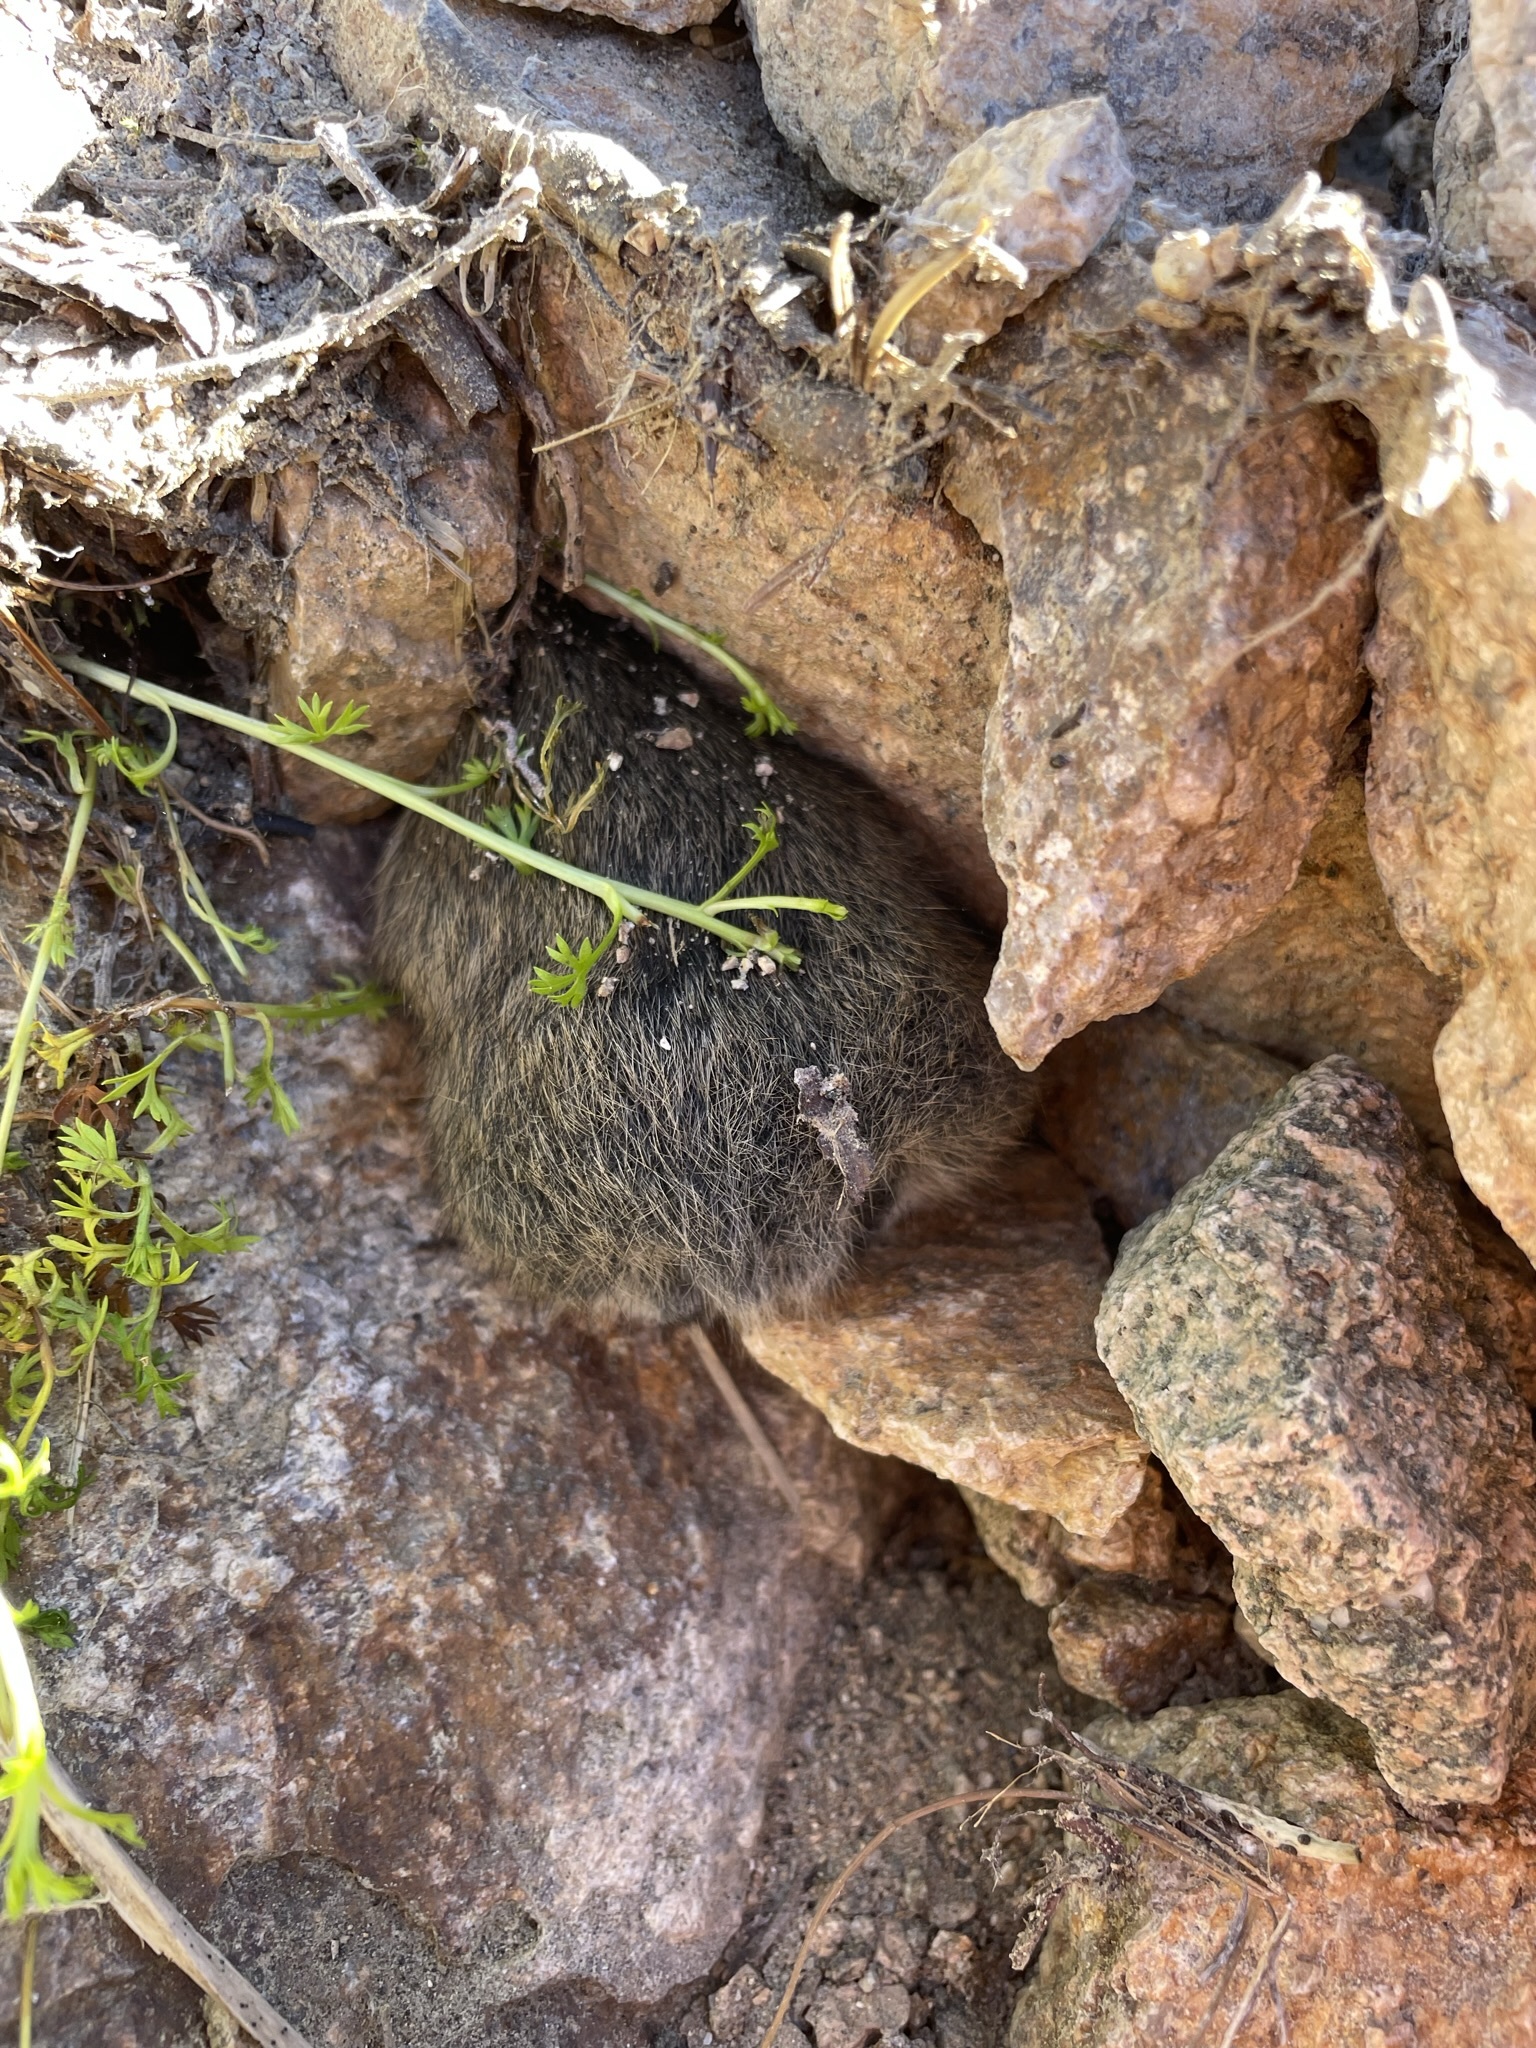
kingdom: Animalia
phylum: Chordata
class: Mammalia
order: Lagomorpha
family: Ochotonidae
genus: Ochotona
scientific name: Ochotona princeps
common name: American pika
